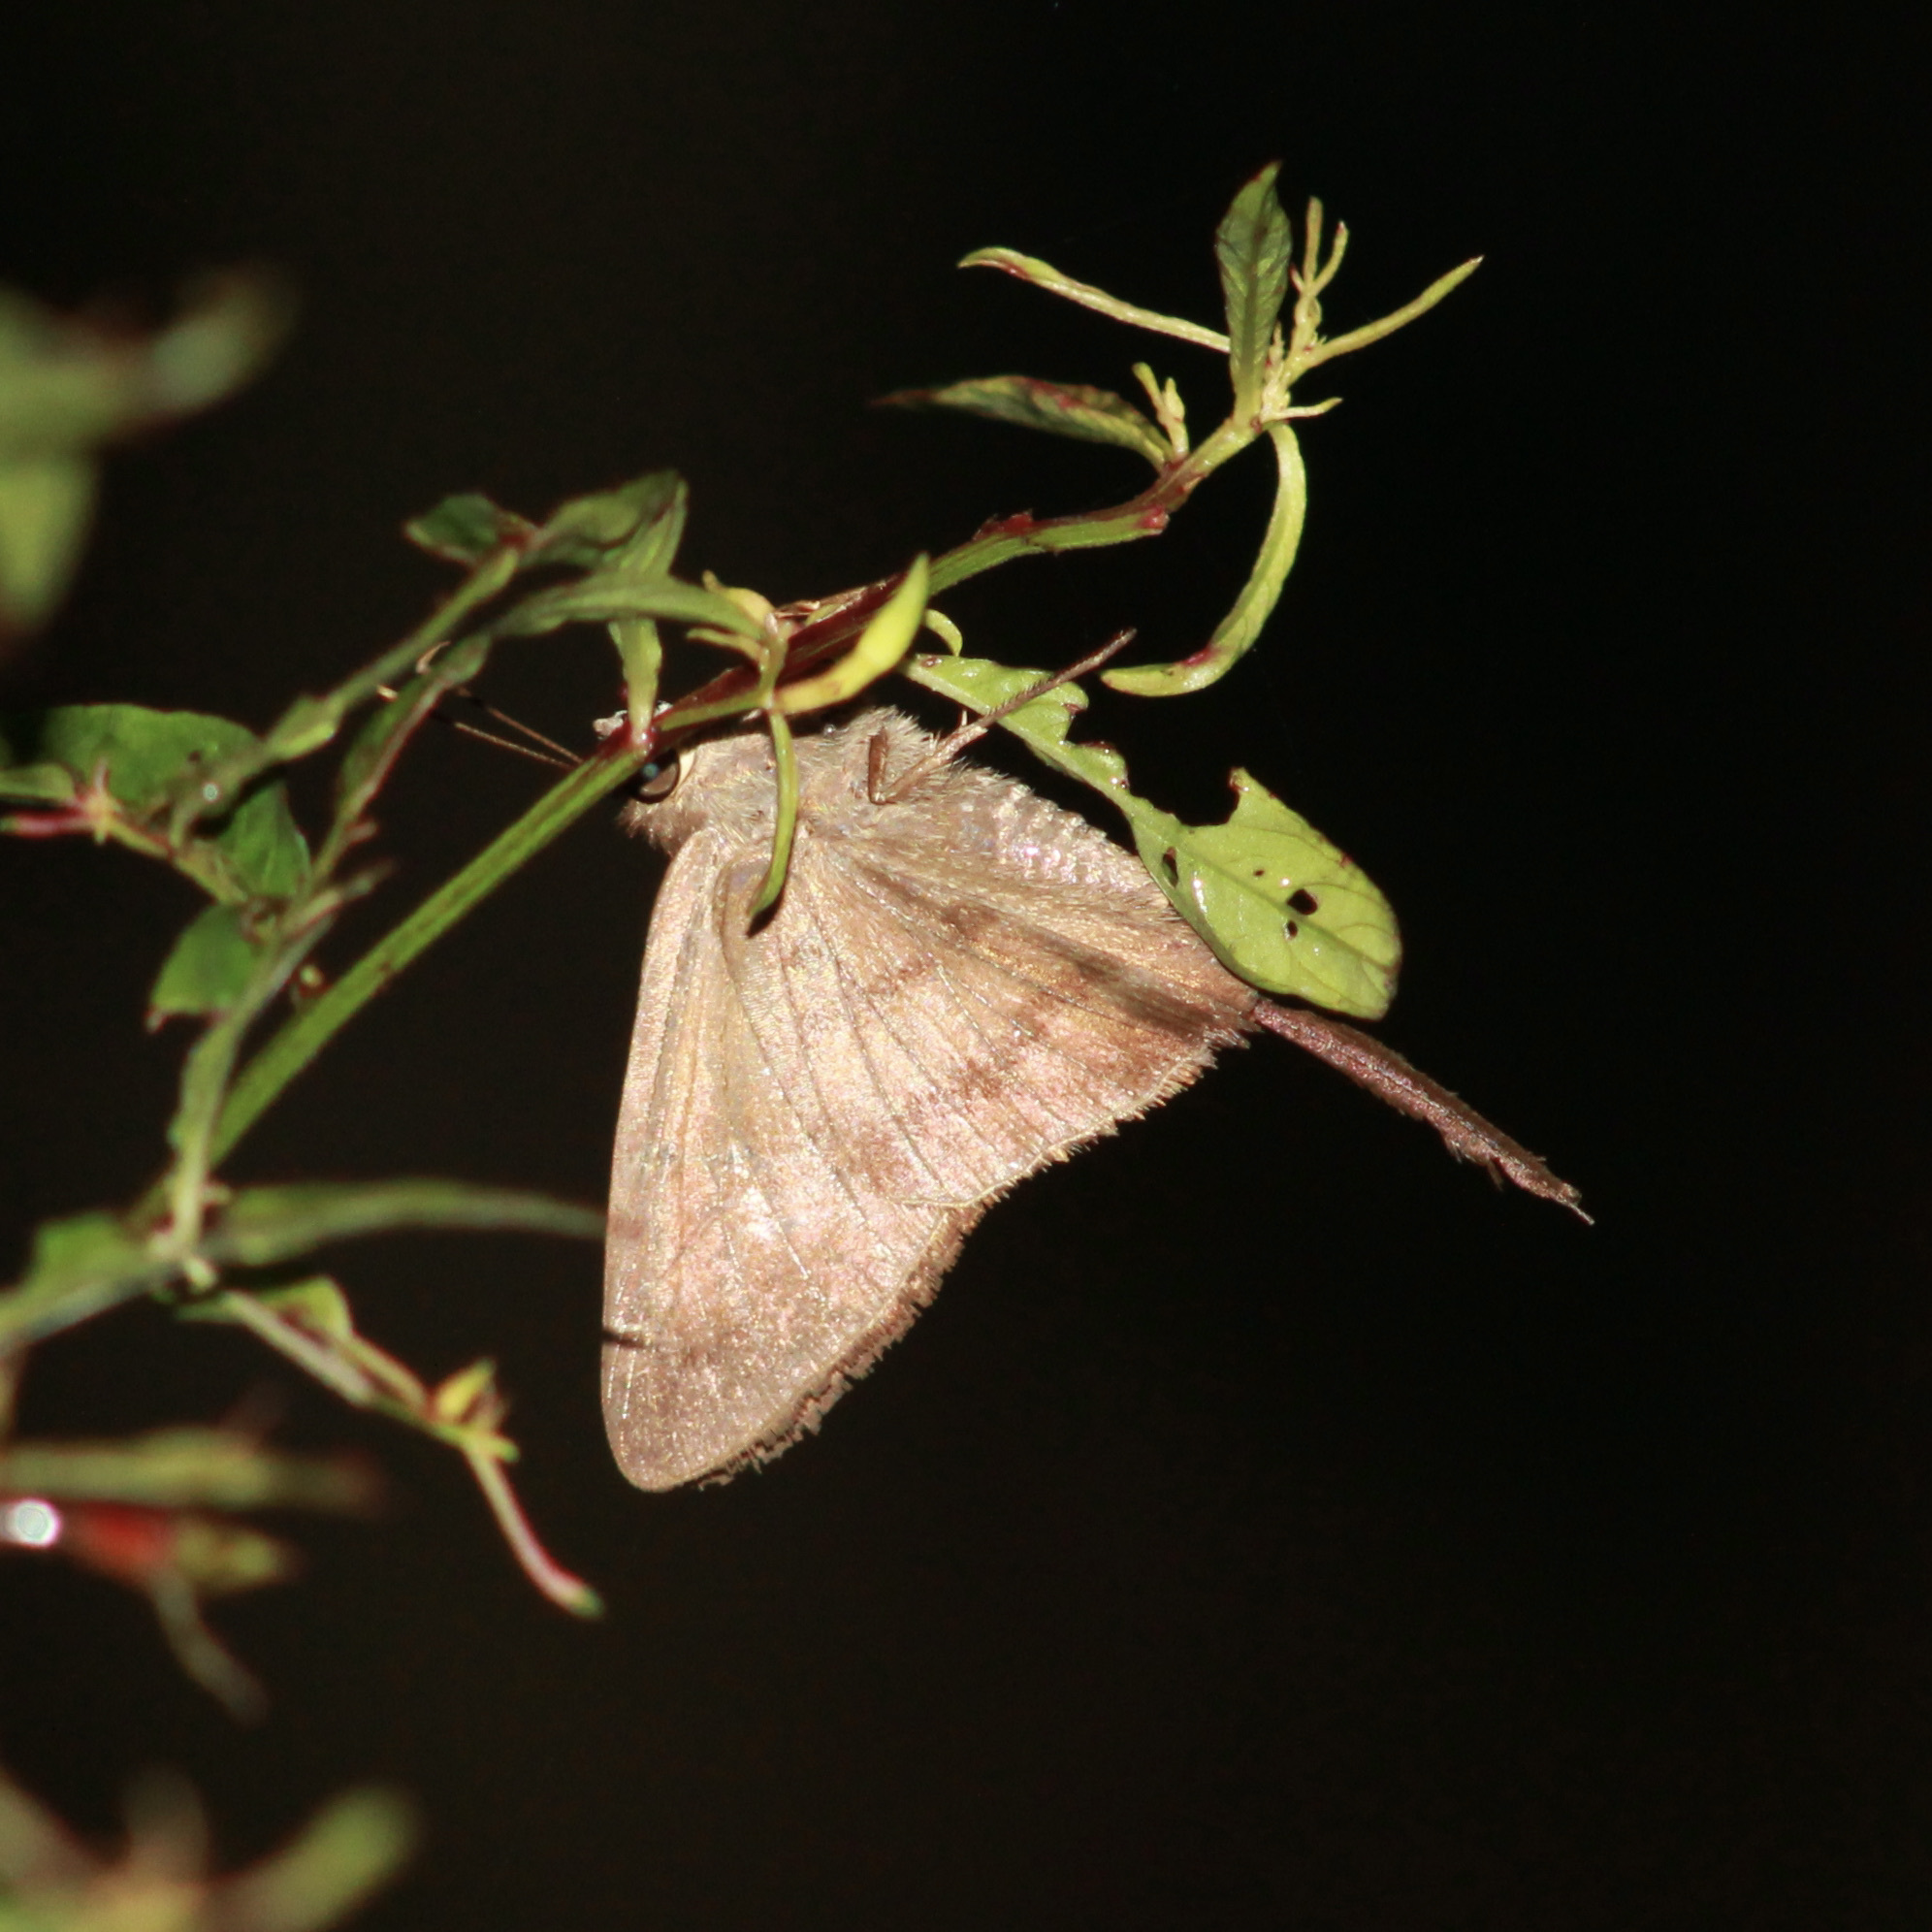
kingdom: Animalia
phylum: Arthropoda
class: Insecta
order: Lepidoptera
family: Hesperiidae
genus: Urbanus
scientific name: Urbanus simplicius
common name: Plain longtail
